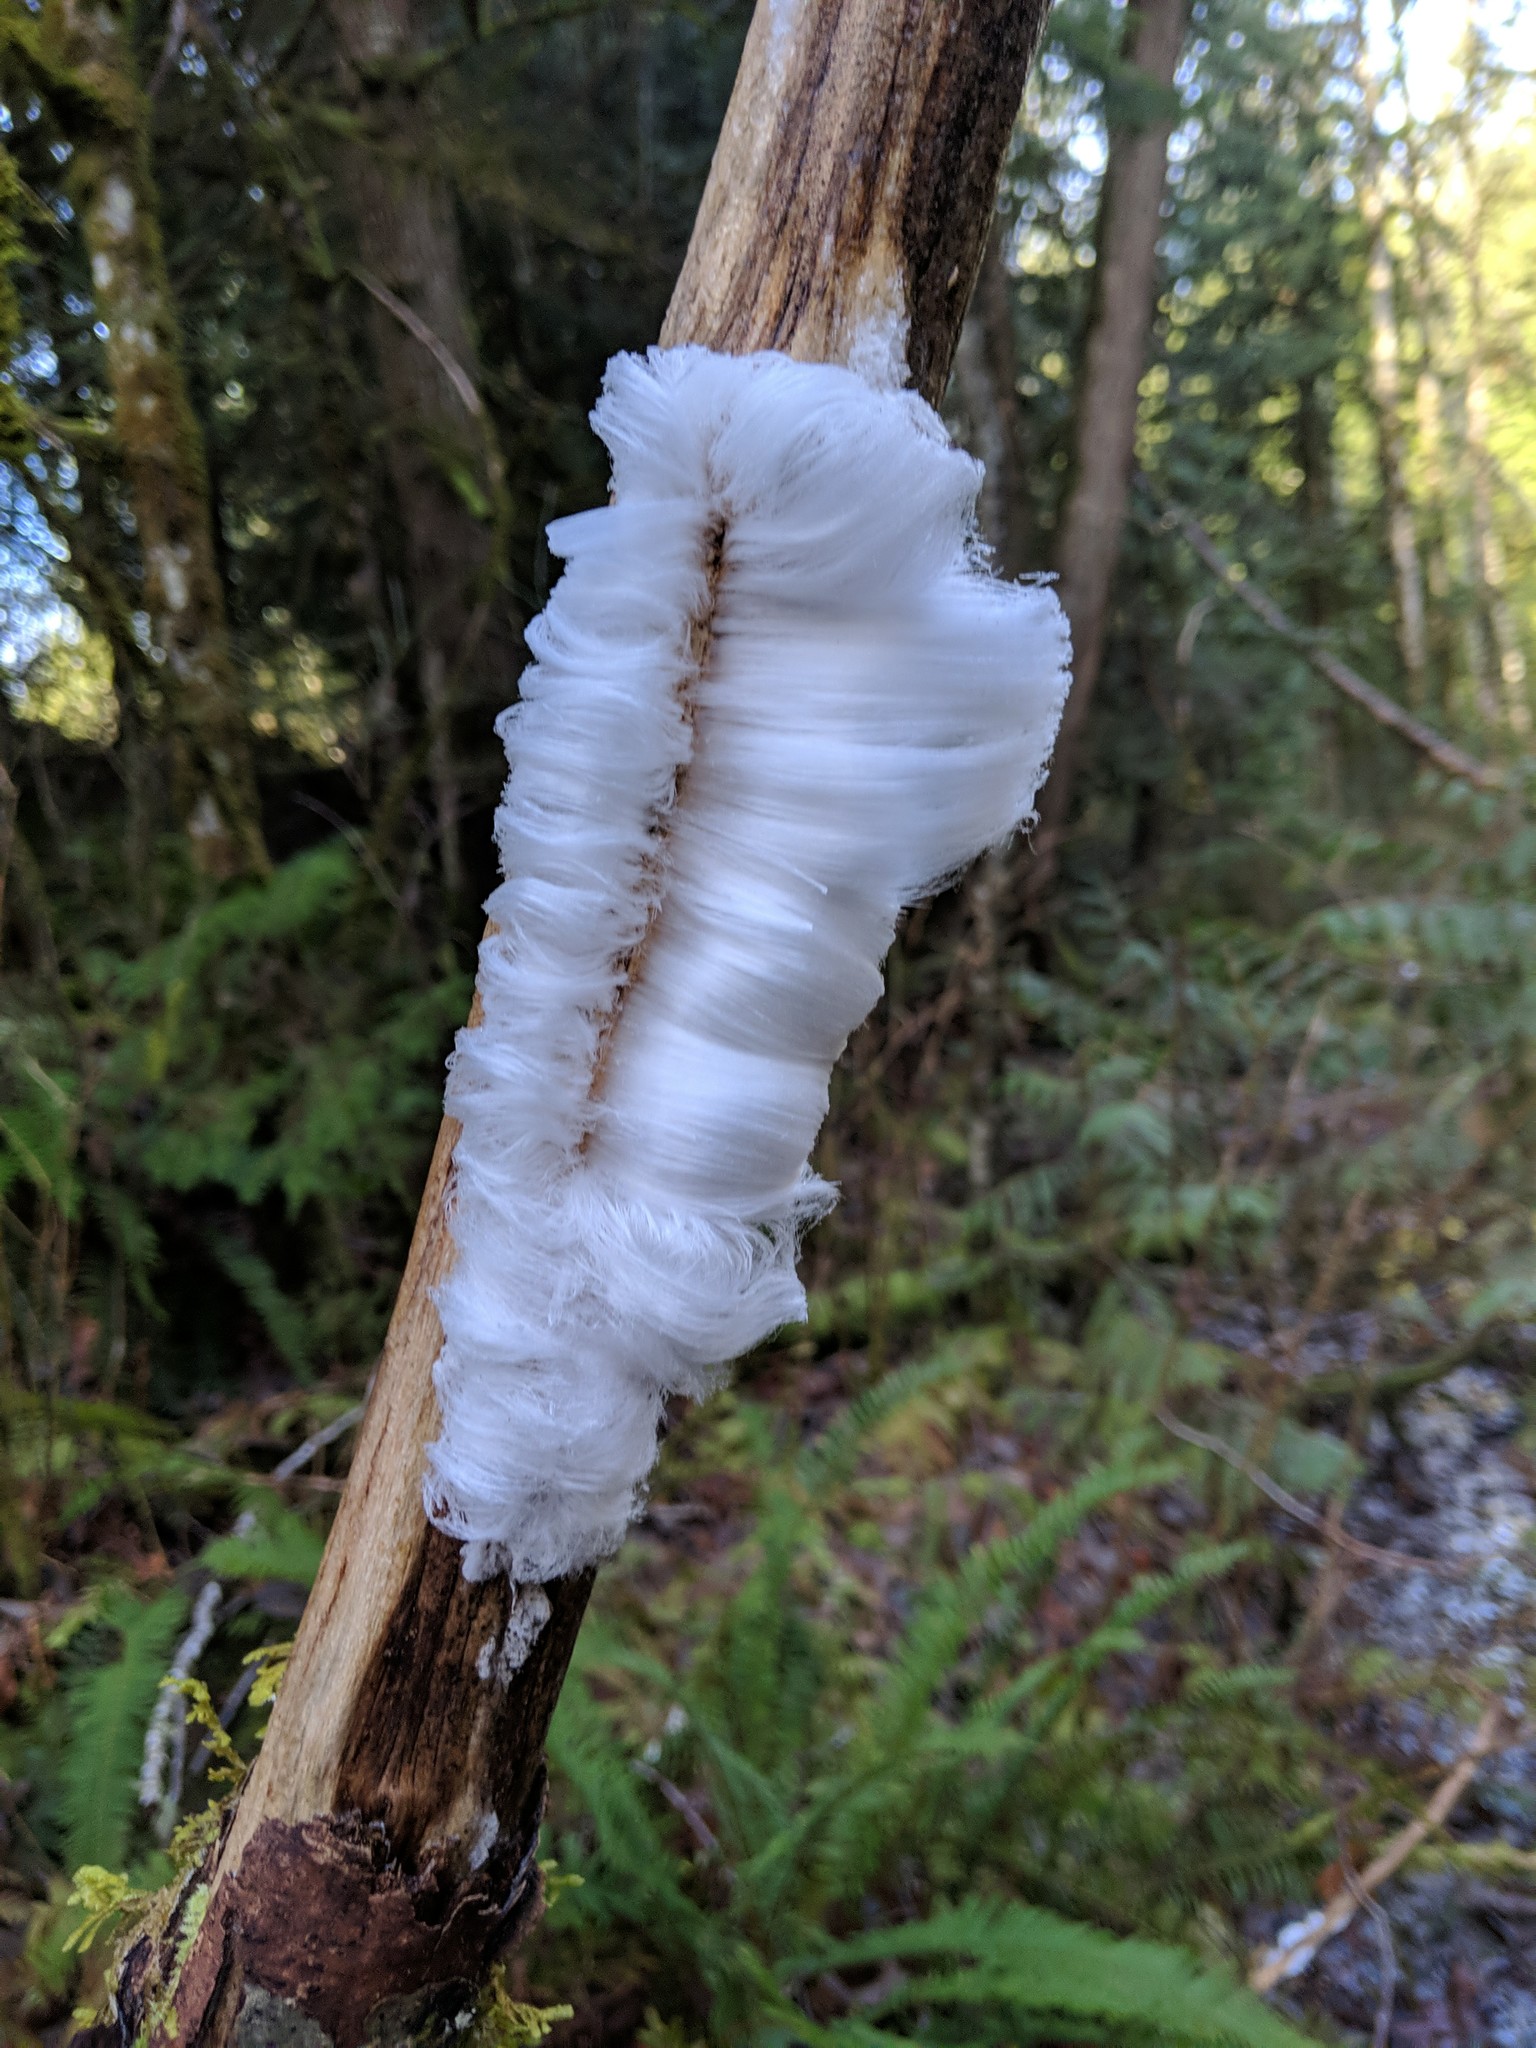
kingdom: Fungi
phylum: Basidiomycota
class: Agaricomycetes
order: Auriculariales
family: Auriculariaceae
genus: Exidiopsis
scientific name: Exidiopsis effusa
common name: Hair ice crust
